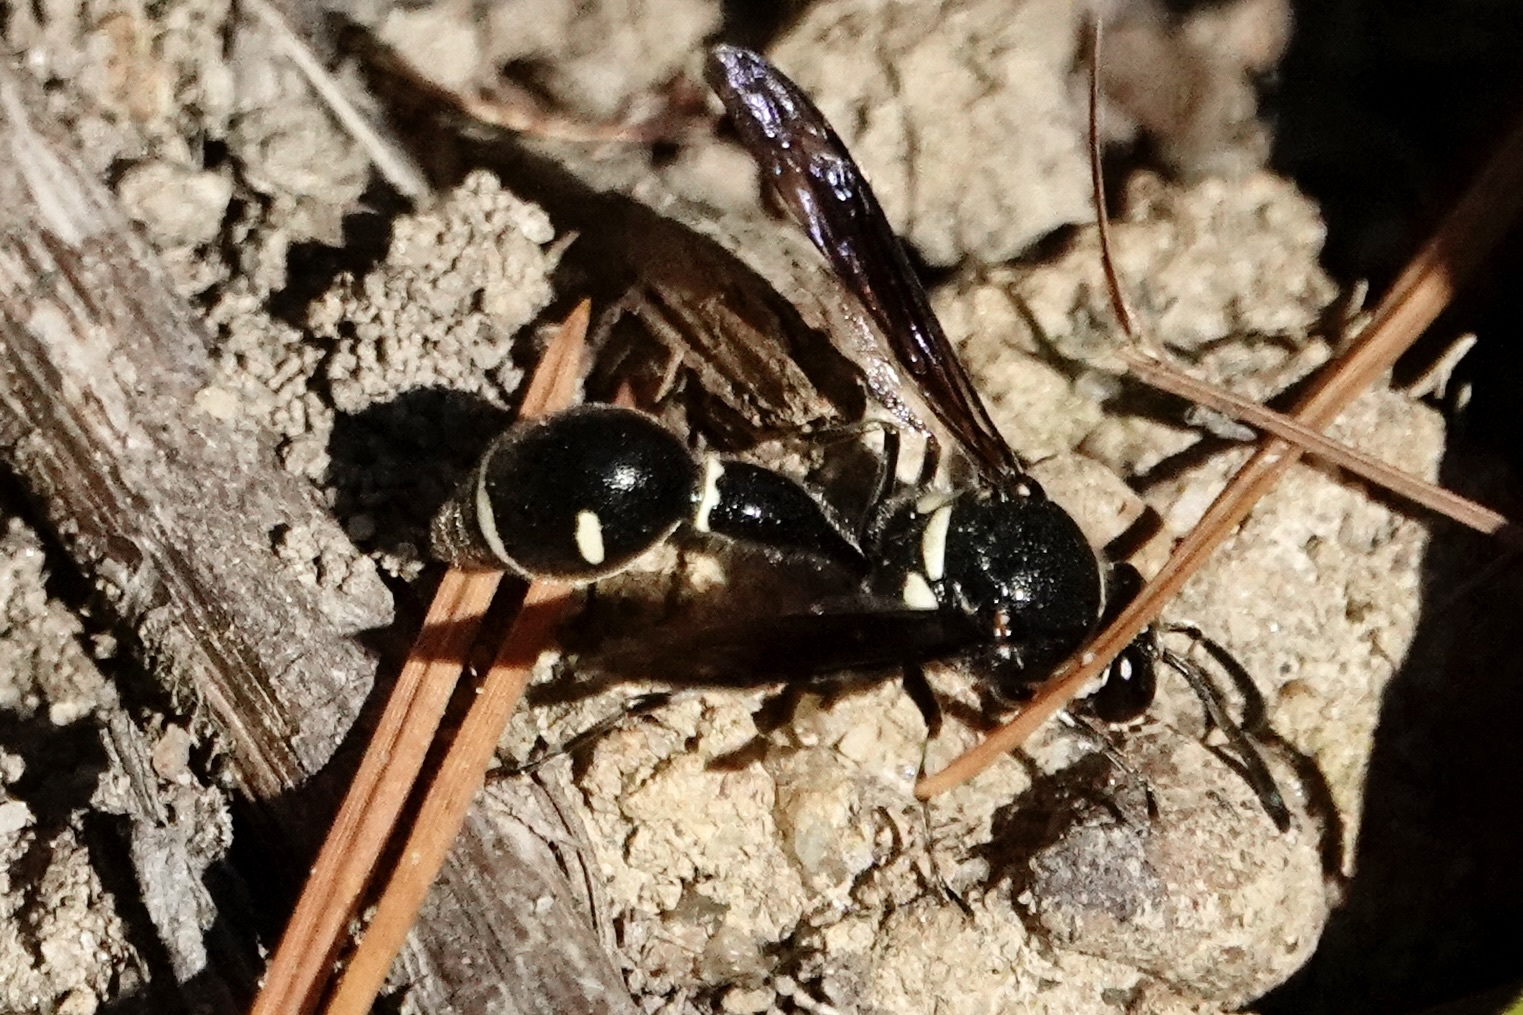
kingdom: Animalia
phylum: Arthropoda
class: Insecta
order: Hymenoptera
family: Vespidae
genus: Eumenes
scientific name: Eumenes fraternus
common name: Fraternal potter wasp
